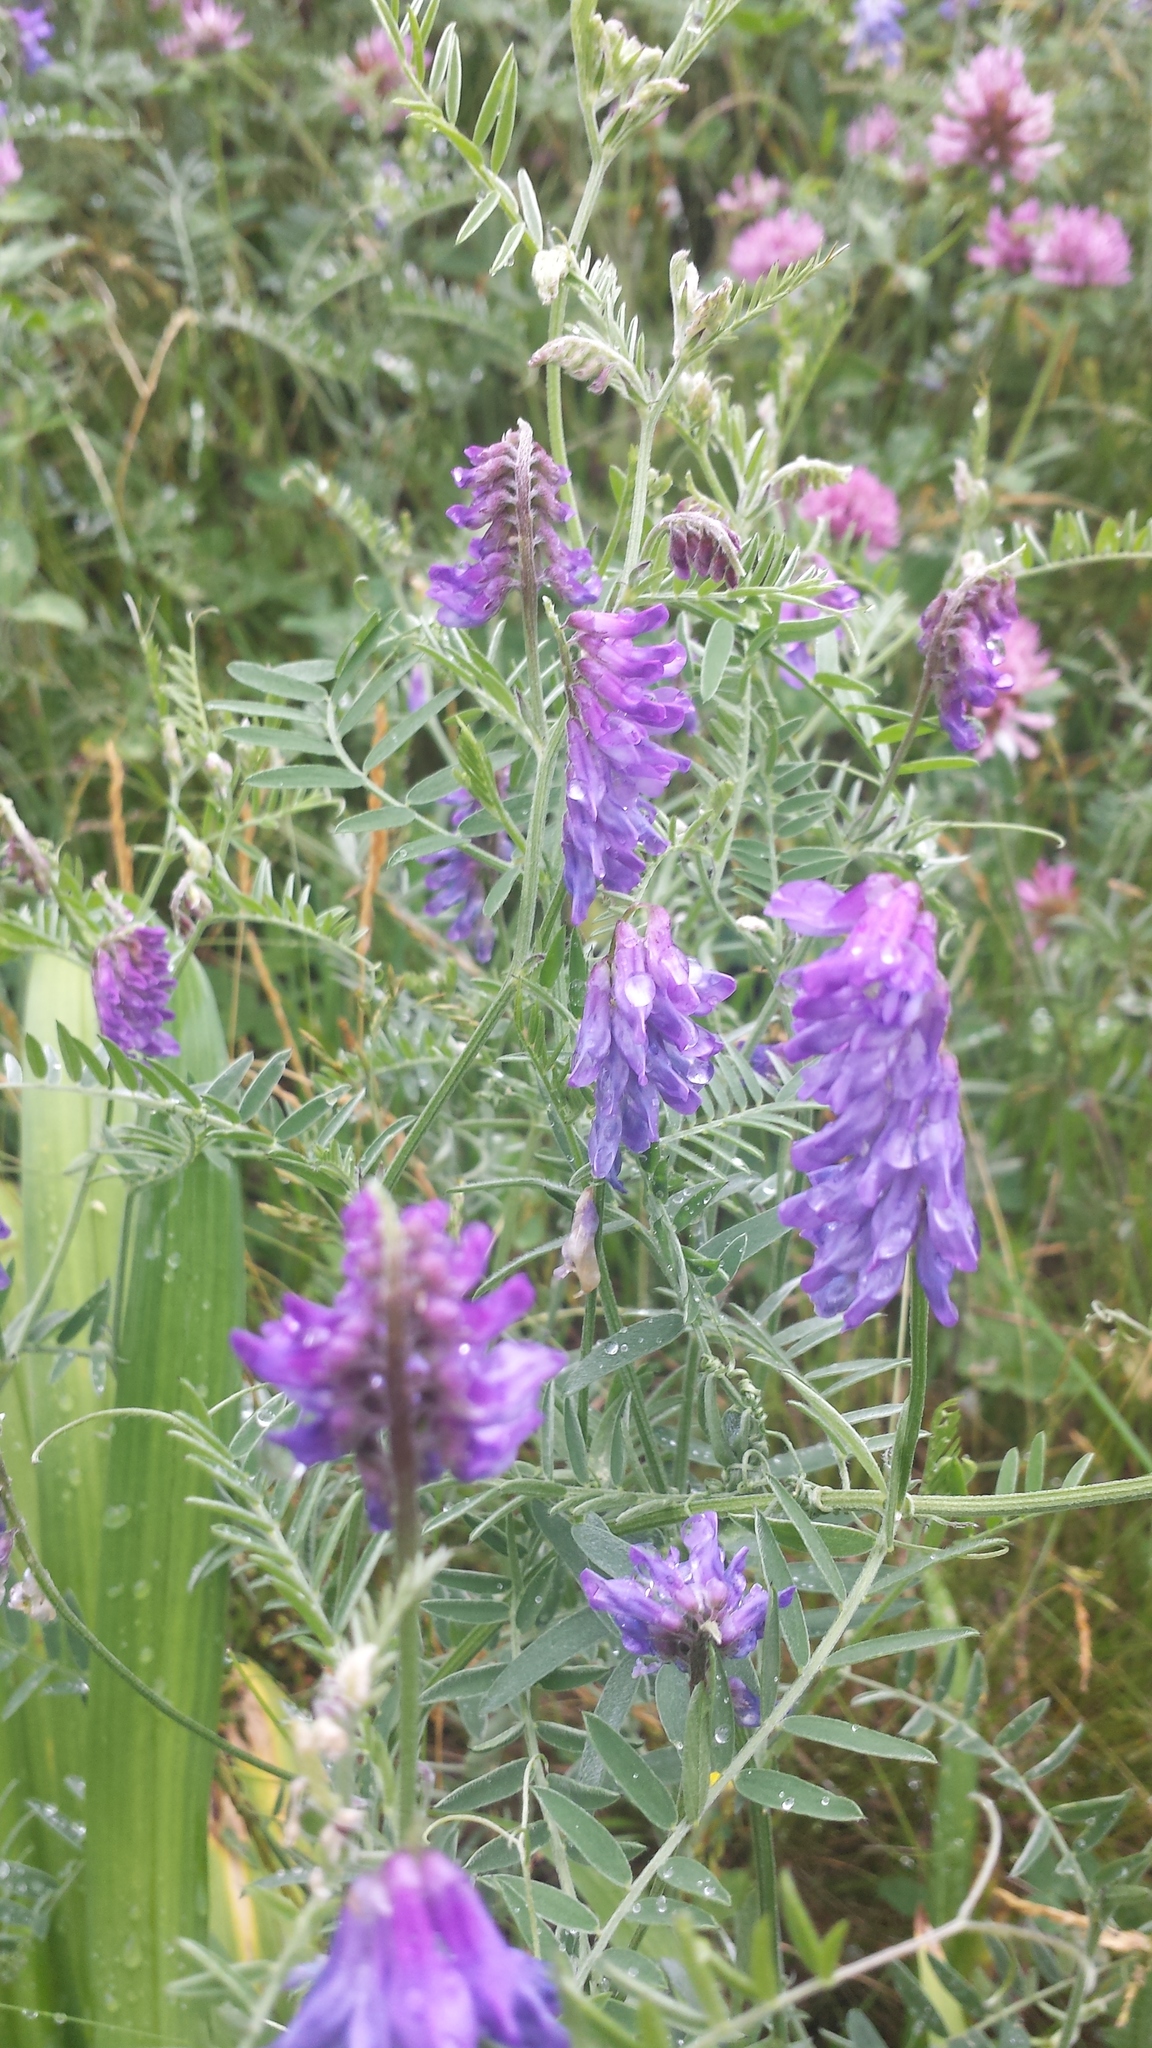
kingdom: Plantae
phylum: Tracheophyta
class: Magnoliopsida
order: Fabales
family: Fabaceae
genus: Vicia
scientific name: Vicia cracca
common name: Bird vetch
